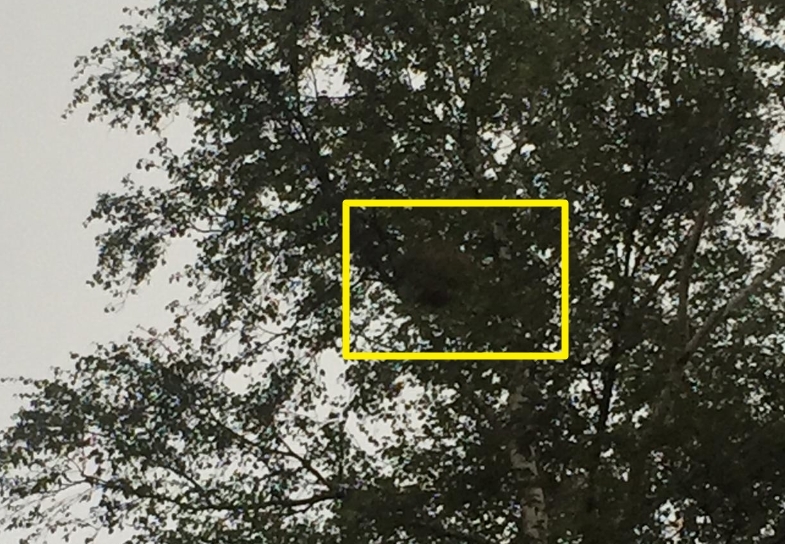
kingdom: Animalia
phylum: Arthropoda
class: Insecta
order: Hymenoptera
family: Vespidae
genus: Vespa
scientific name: Vespa velutina
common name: Asian hornet
